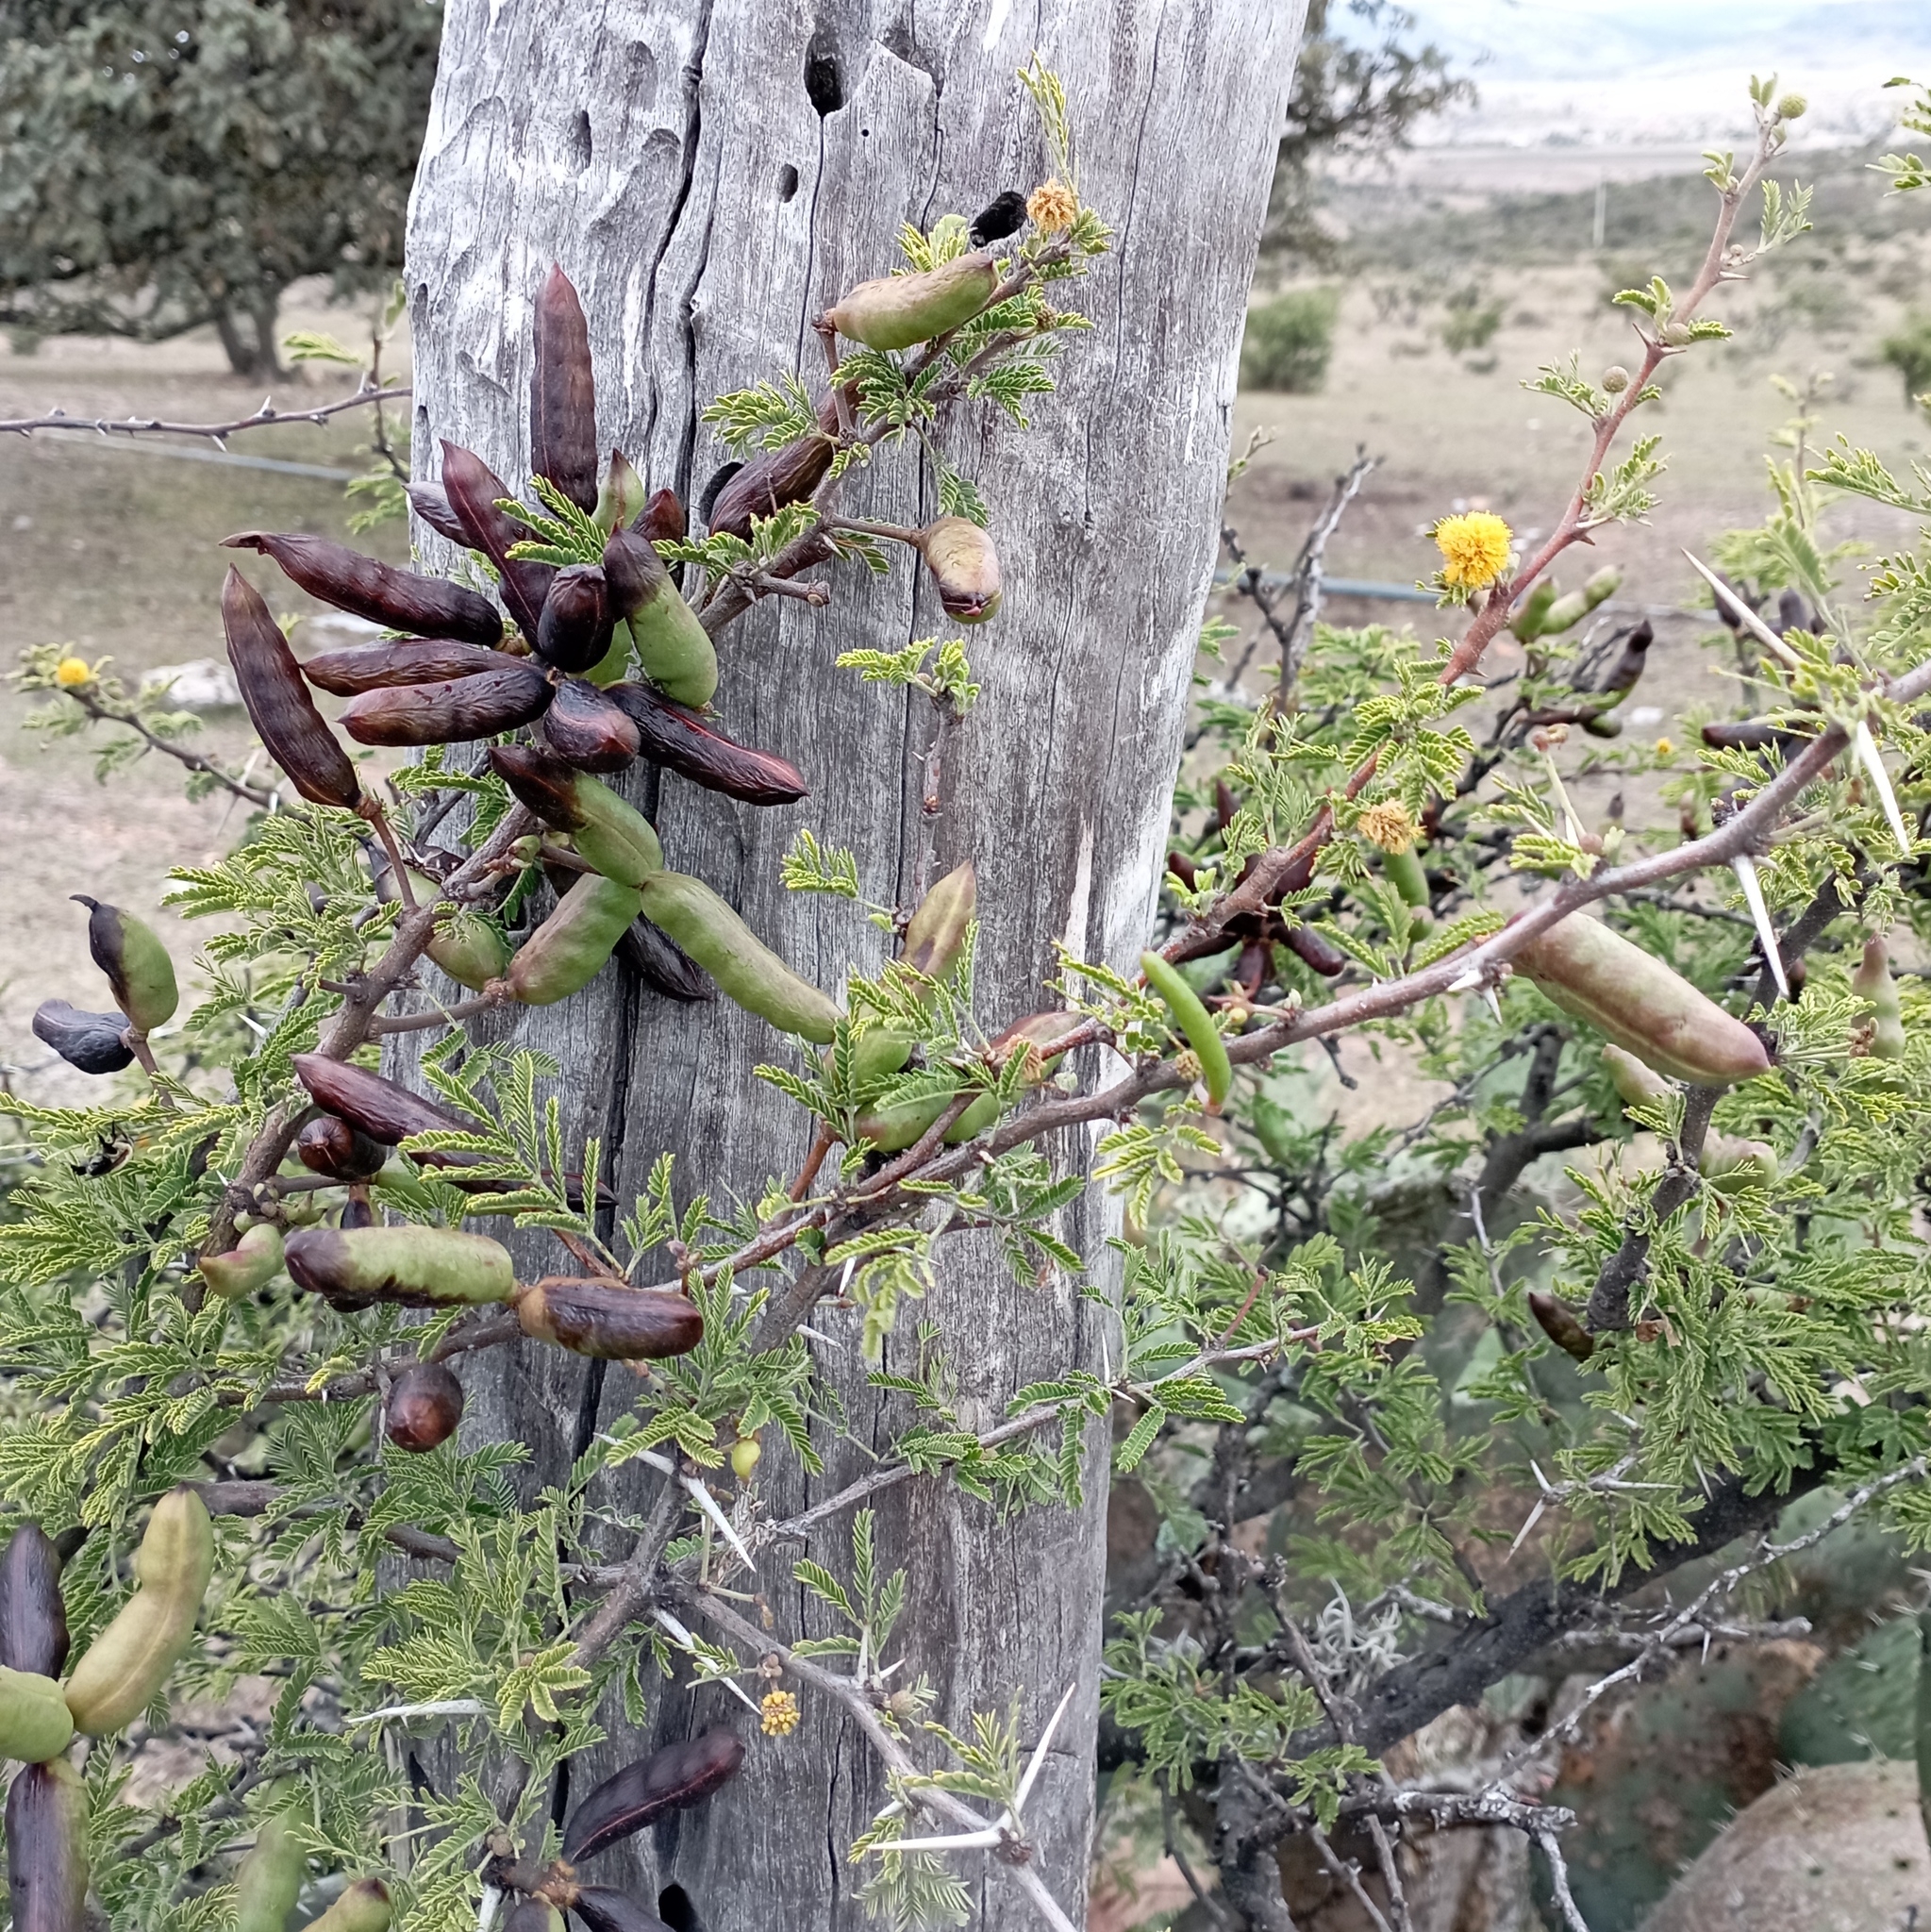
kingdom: Plantae
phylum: Tracheophyta
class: Magnoliopsida
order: Fabales
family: Fabaceae
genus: Vachellia
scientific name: Vachellia farnesiana
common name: Sweet acacia
